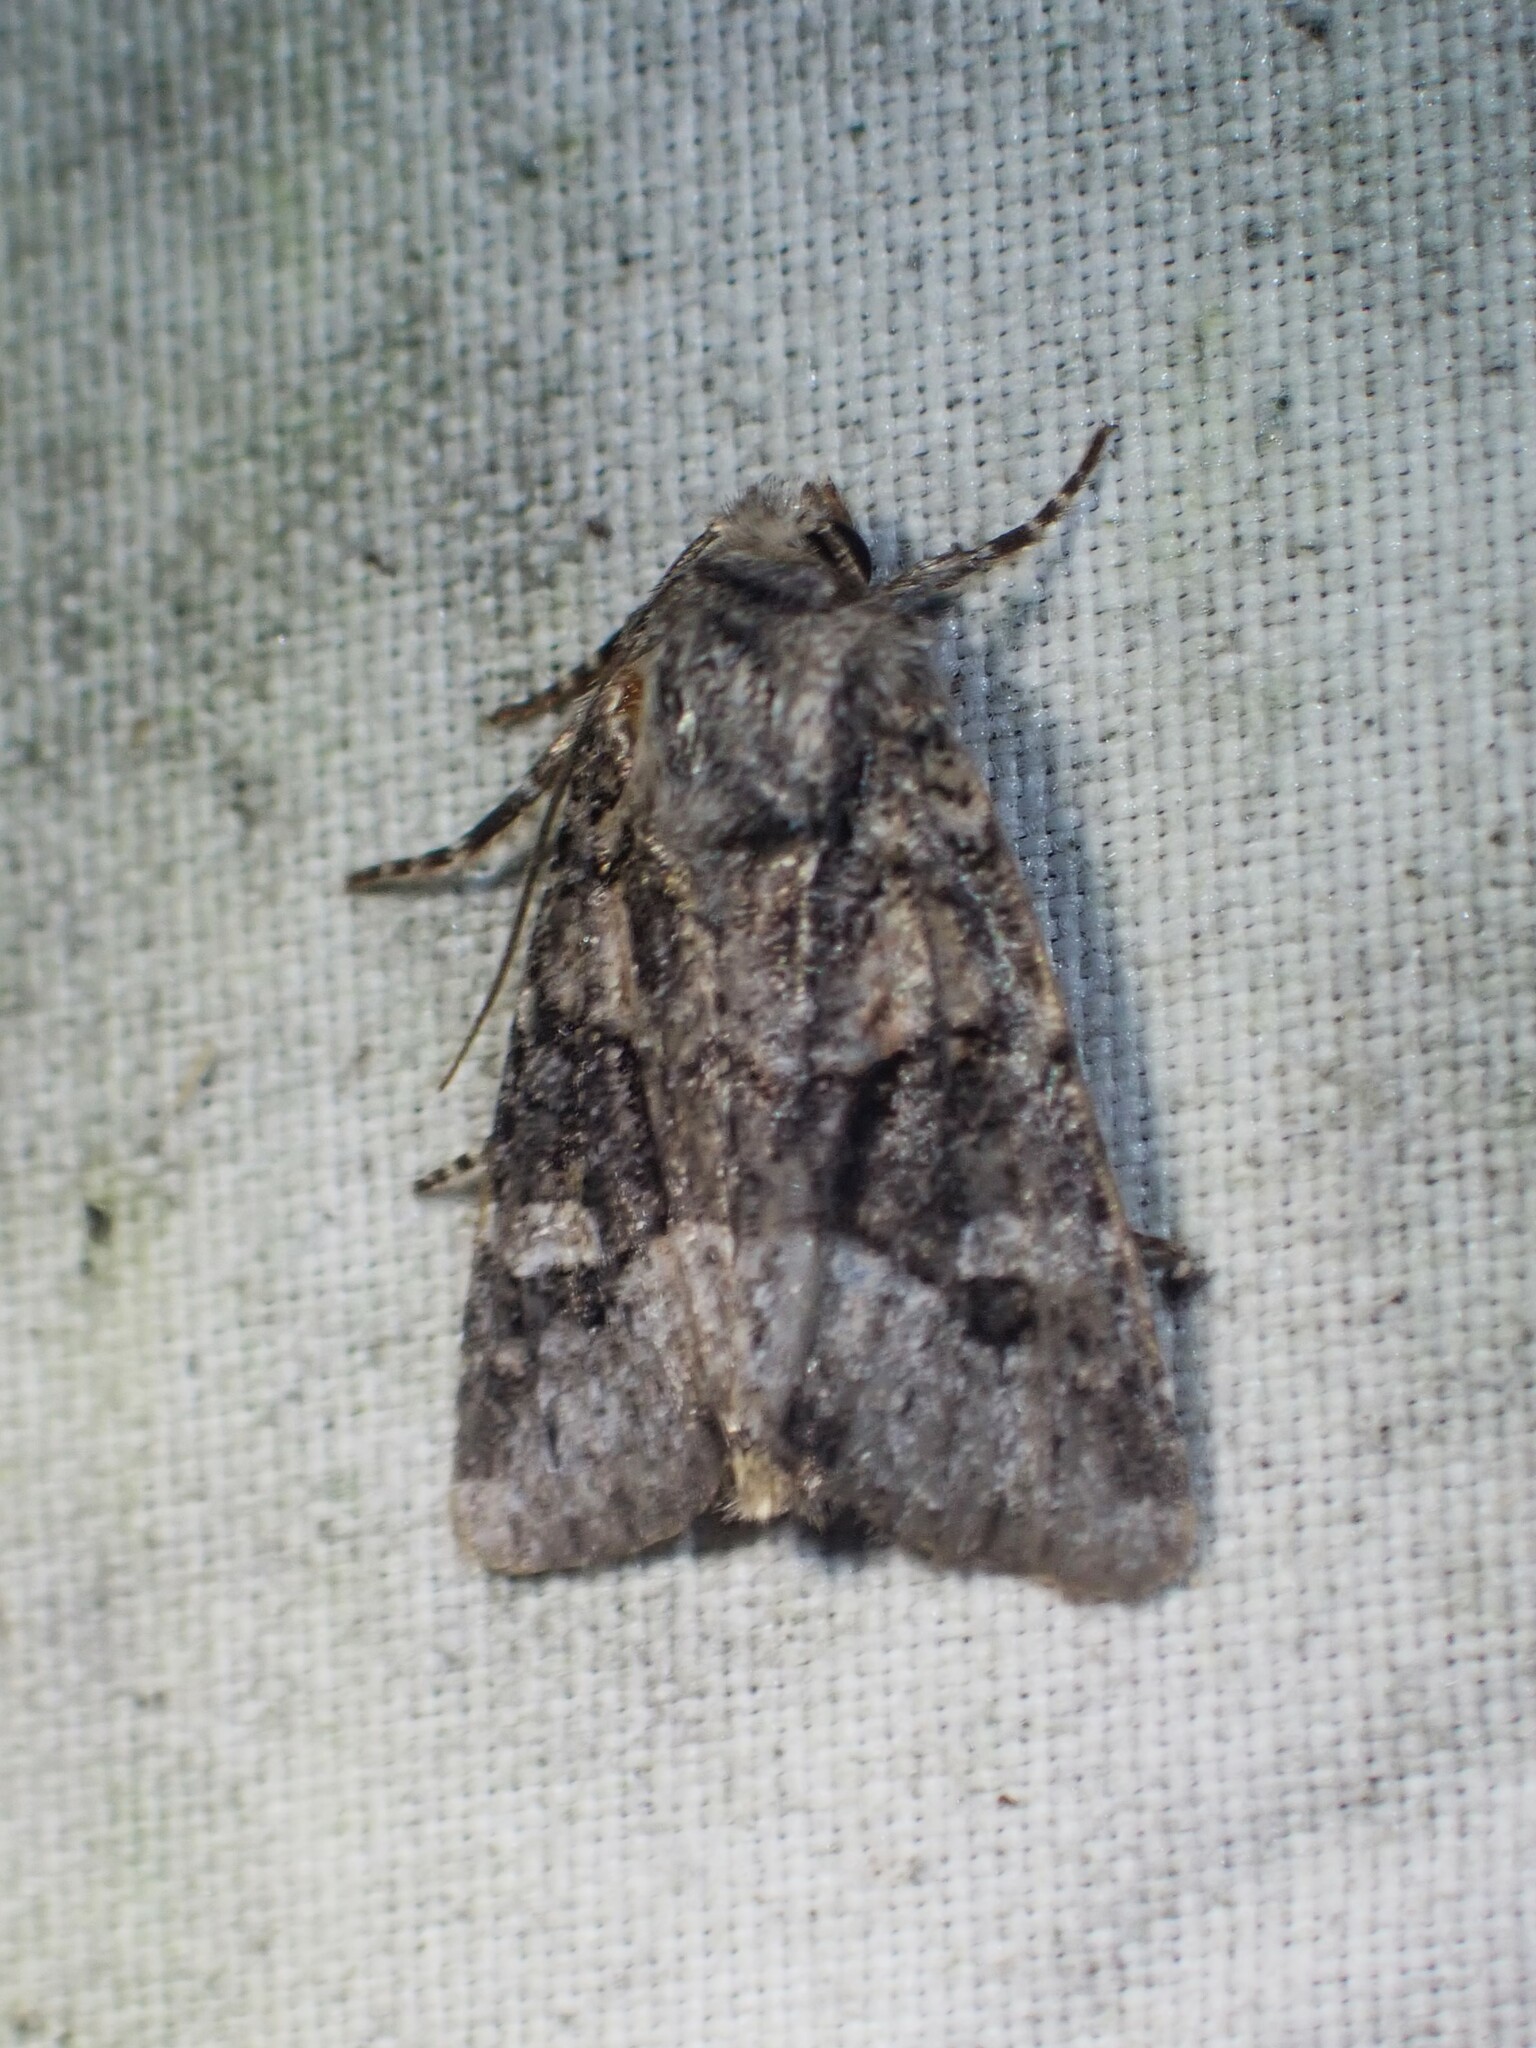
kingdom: Animalia
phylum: Arthropoda
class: Insecta
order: Lepidoptera
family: Noctuidae
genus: Lacinipolia
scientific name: Lacinipolia olivacea
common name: Olive arches moth
